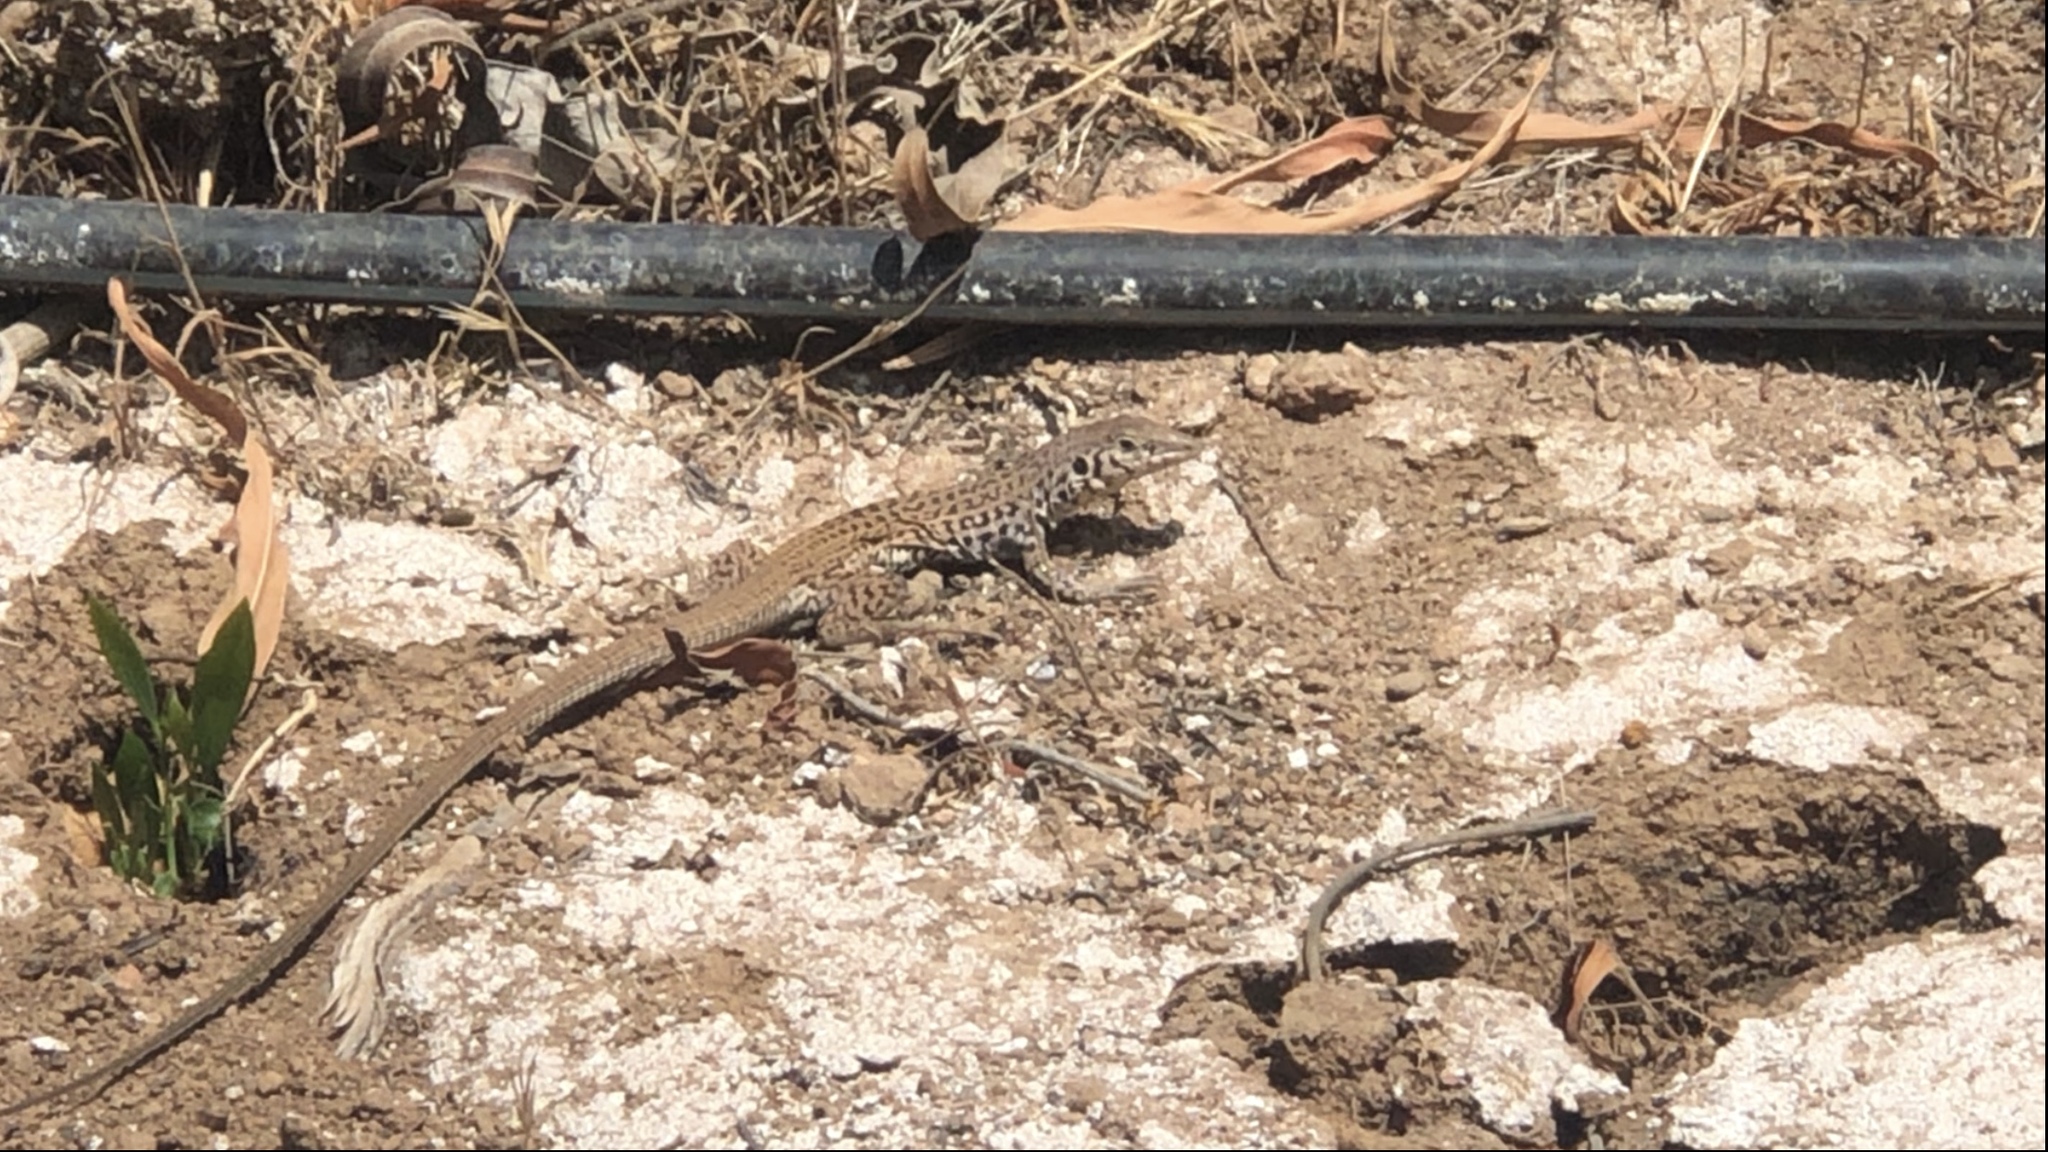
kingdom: Animalia
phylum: Chordata
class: Squamata
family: Teiidae
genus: Aspidoscelis
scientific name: Aspidoscelis tigris
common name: Tiger whiptail
